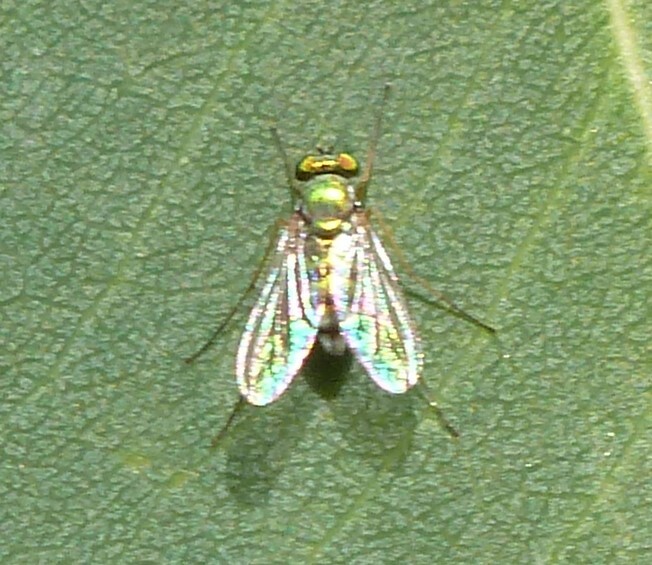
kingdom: Animalia
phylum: Arthropoda
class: Insecta
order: Diptera
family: Dolichopodidae
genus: Parentia
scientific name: Parentia dispar
